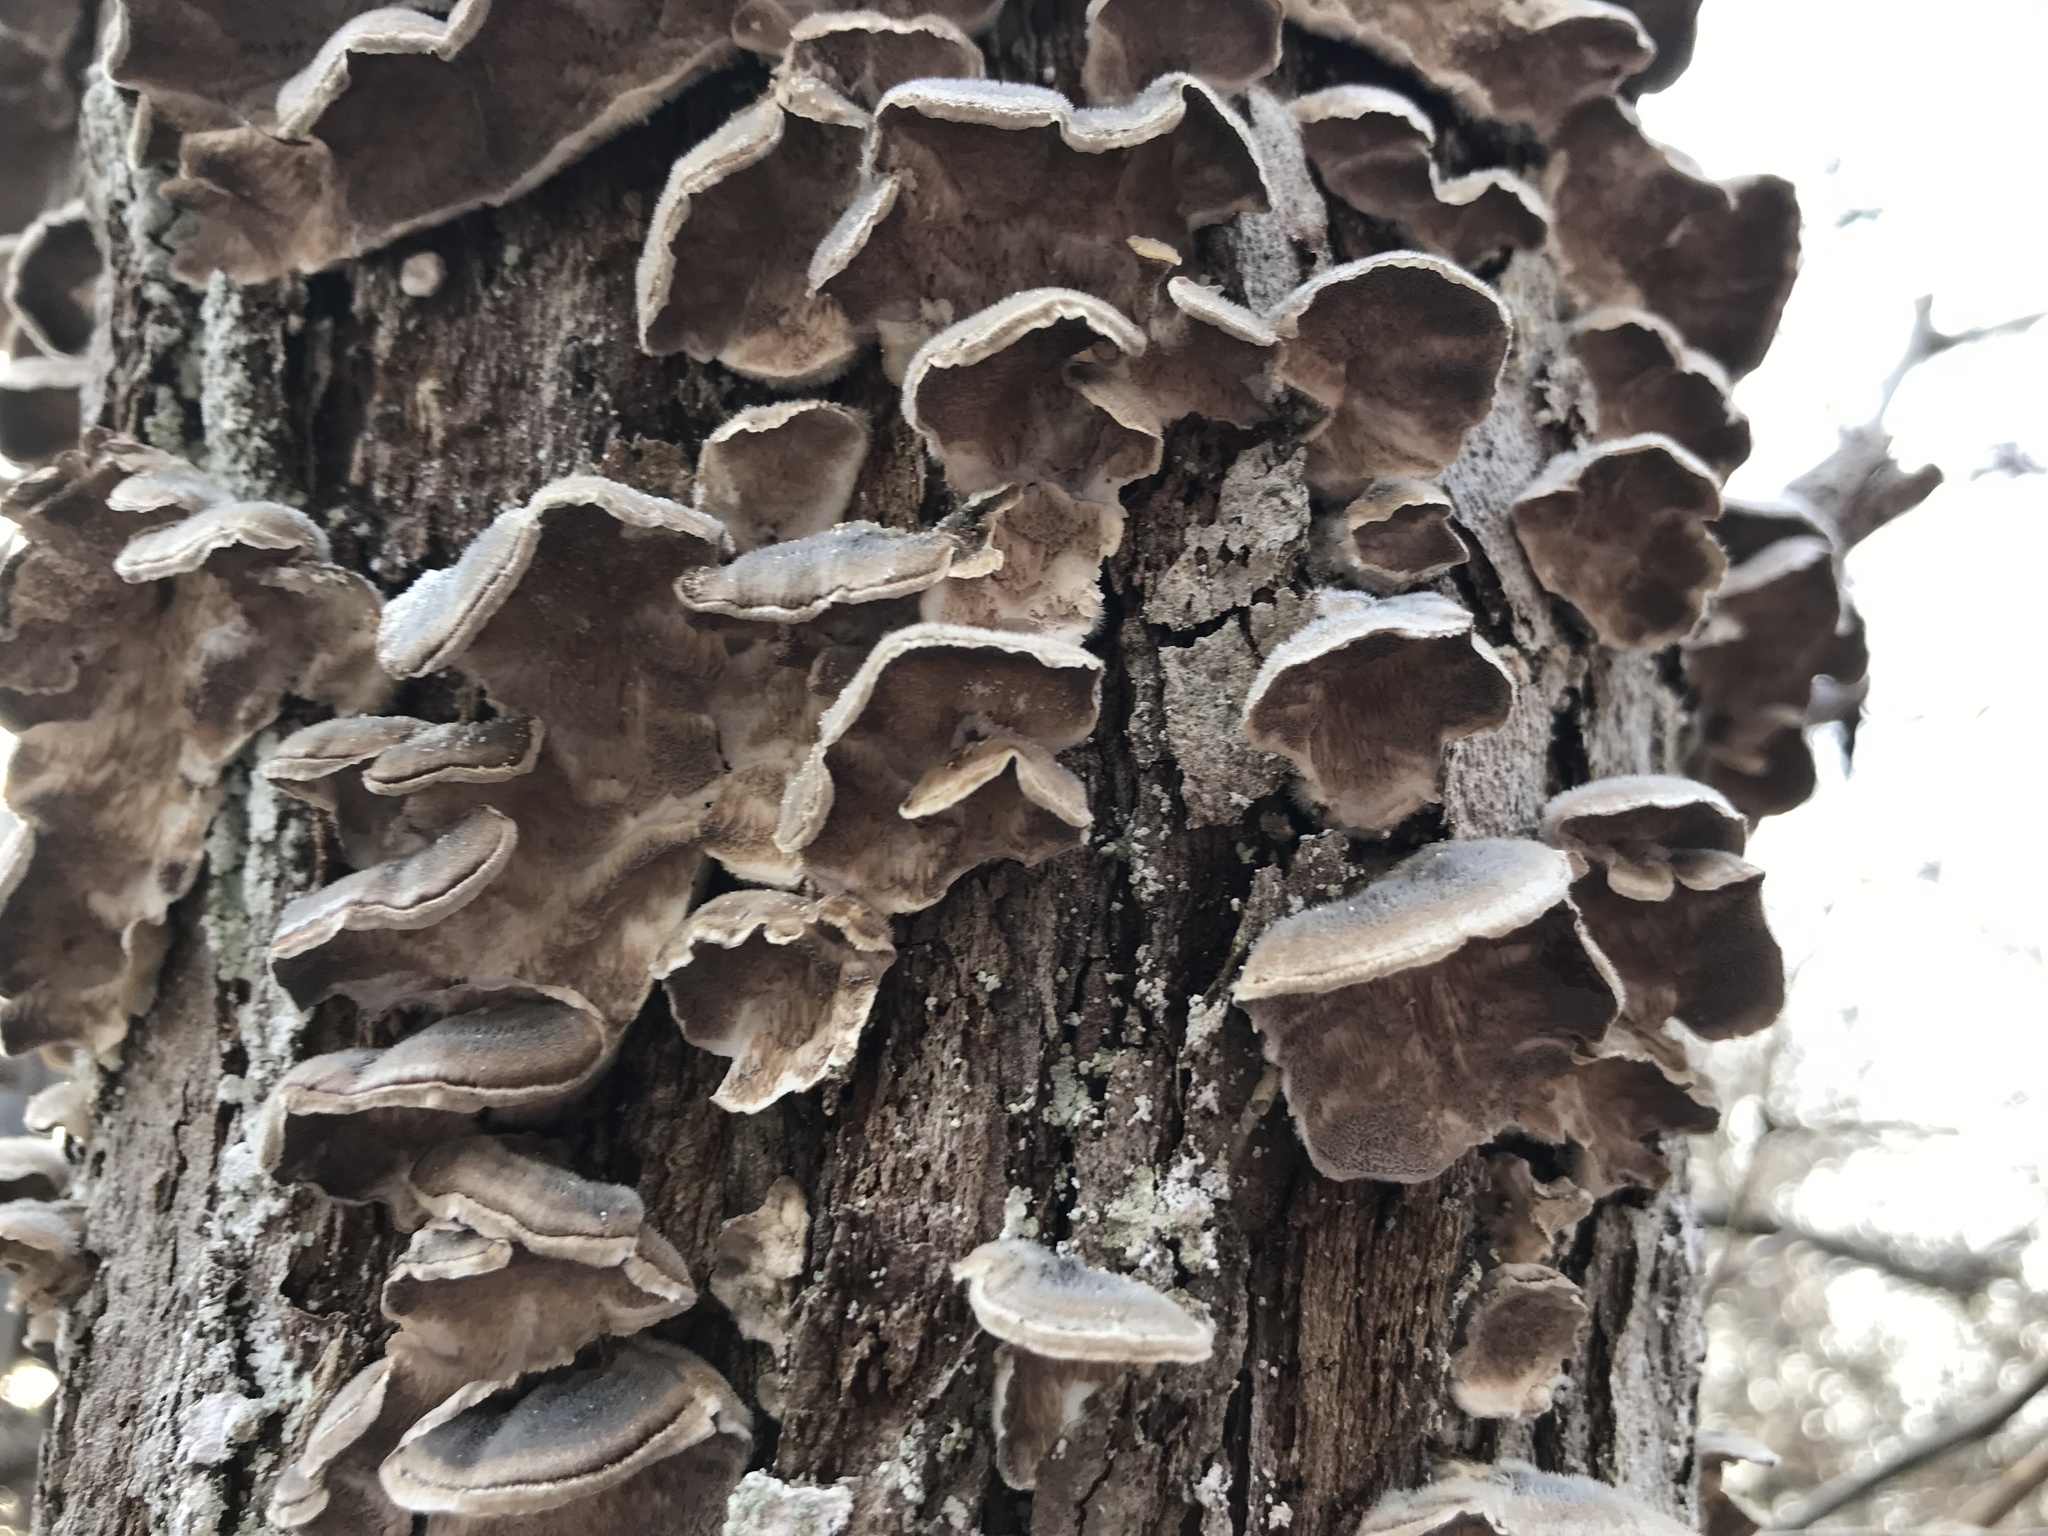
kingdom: Fungi
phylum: Basidiomycota
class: Agaricomycetes
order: Polyporales
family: Polyporaceae
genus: Trametes
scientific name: Trametes versicolor
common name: Turkeytail
